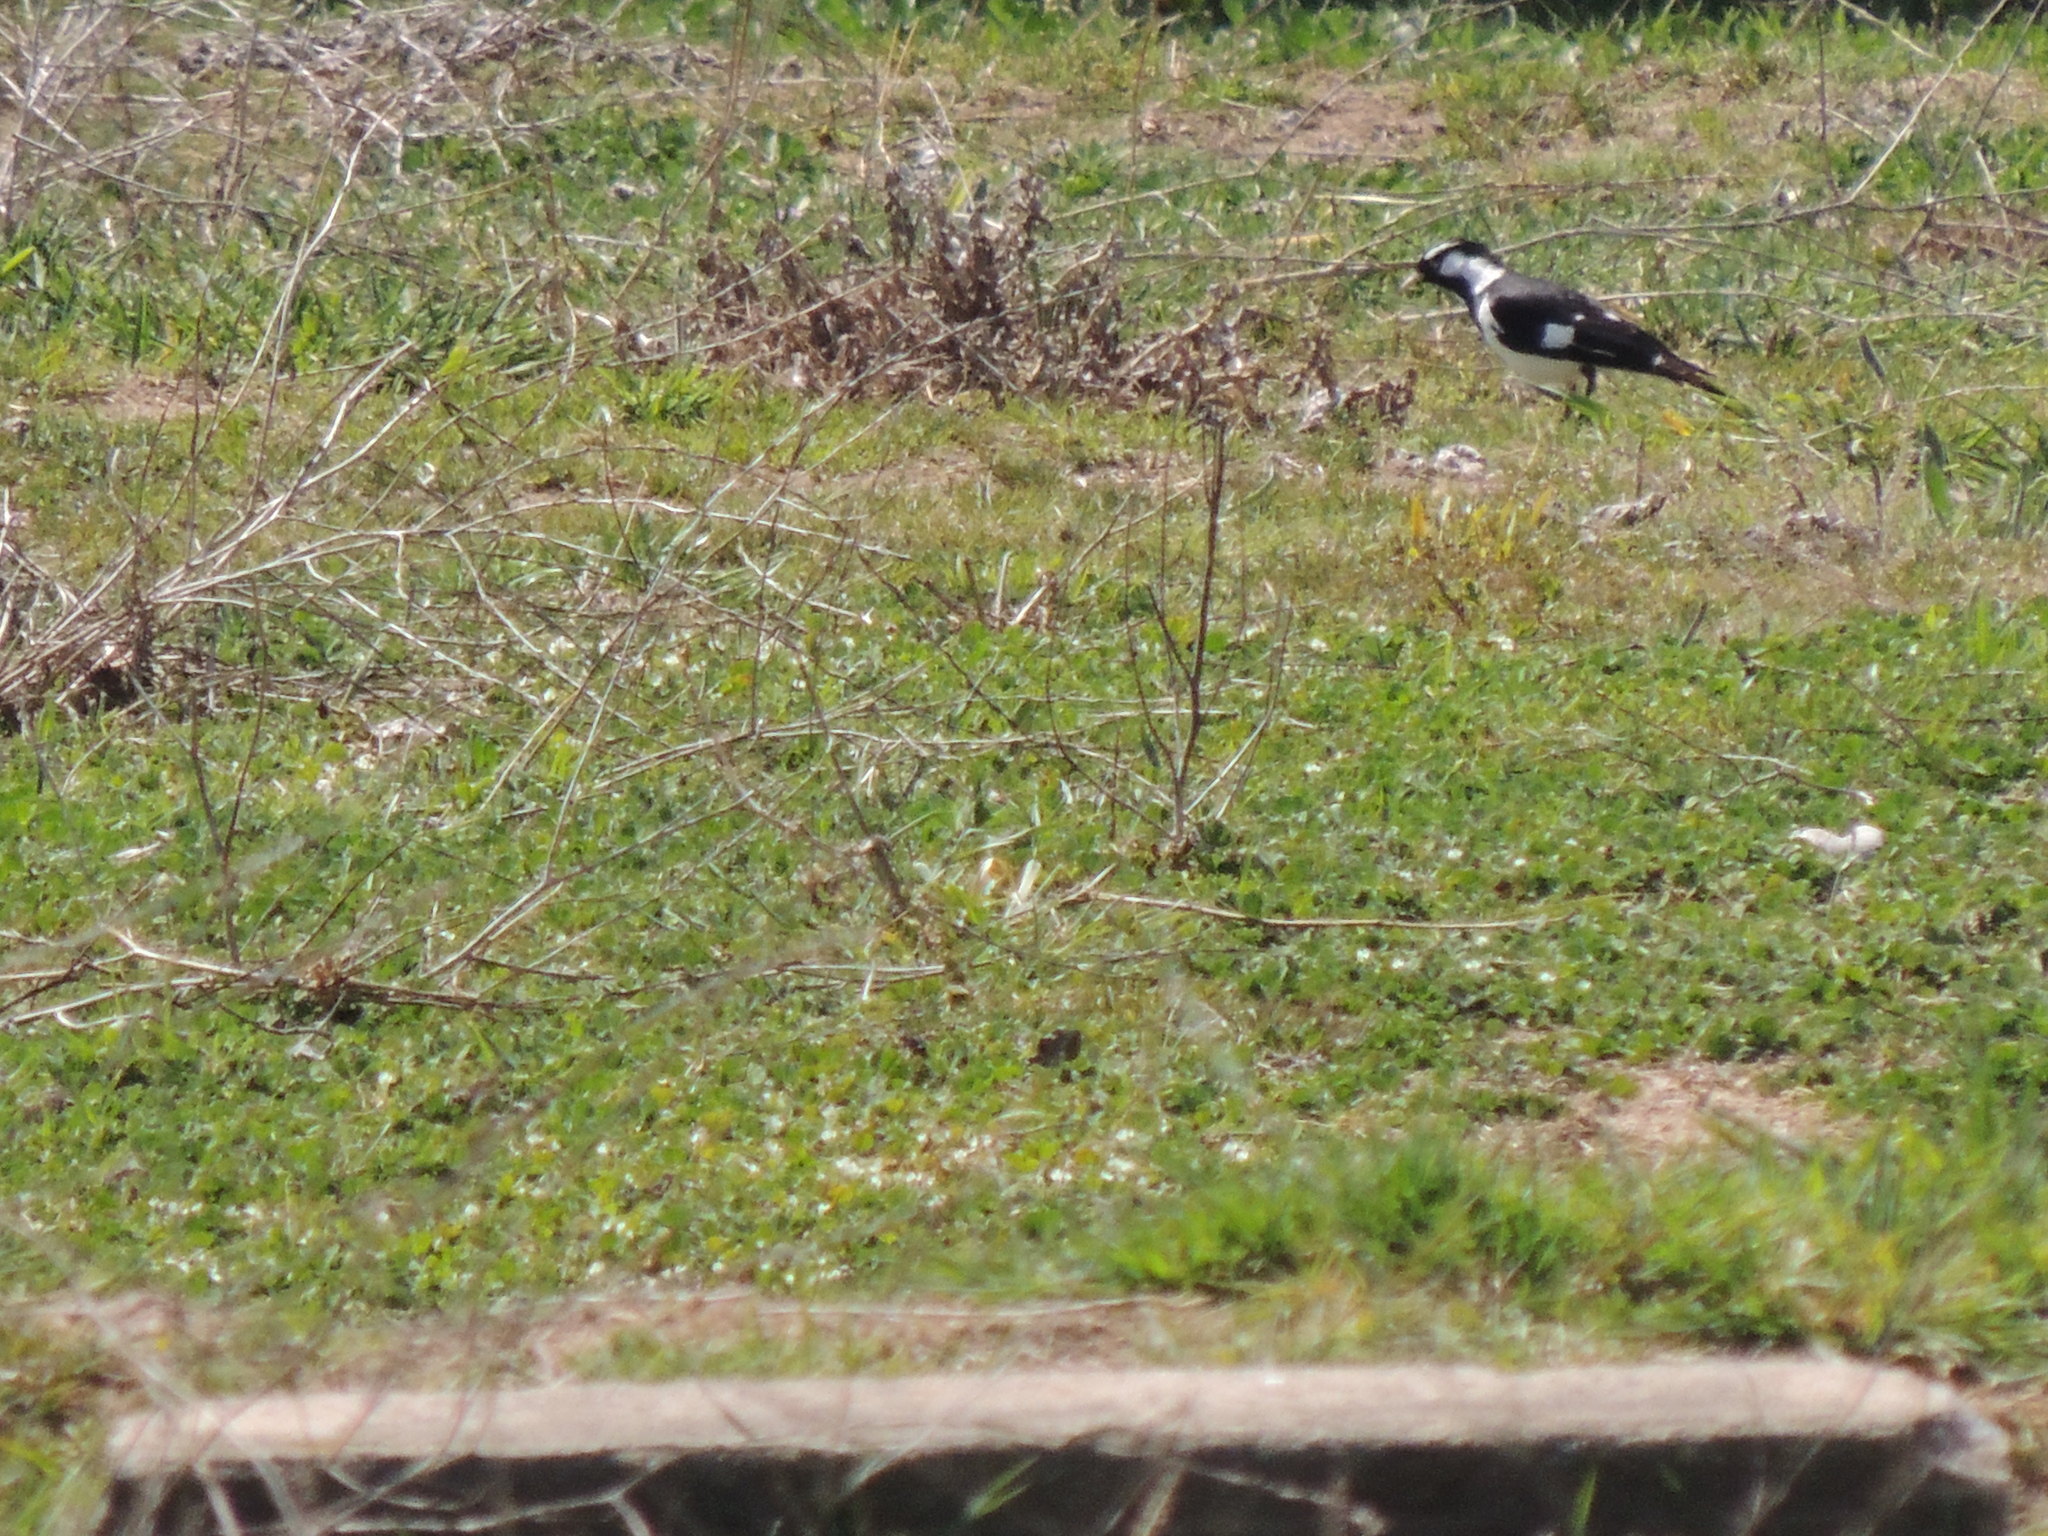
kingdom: Animalia
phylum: Chordata
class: Aves
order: Passeriformes
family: Monarchidae
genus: Grallina
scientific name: Grallina cyanoleuca
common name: Magpie-lark
